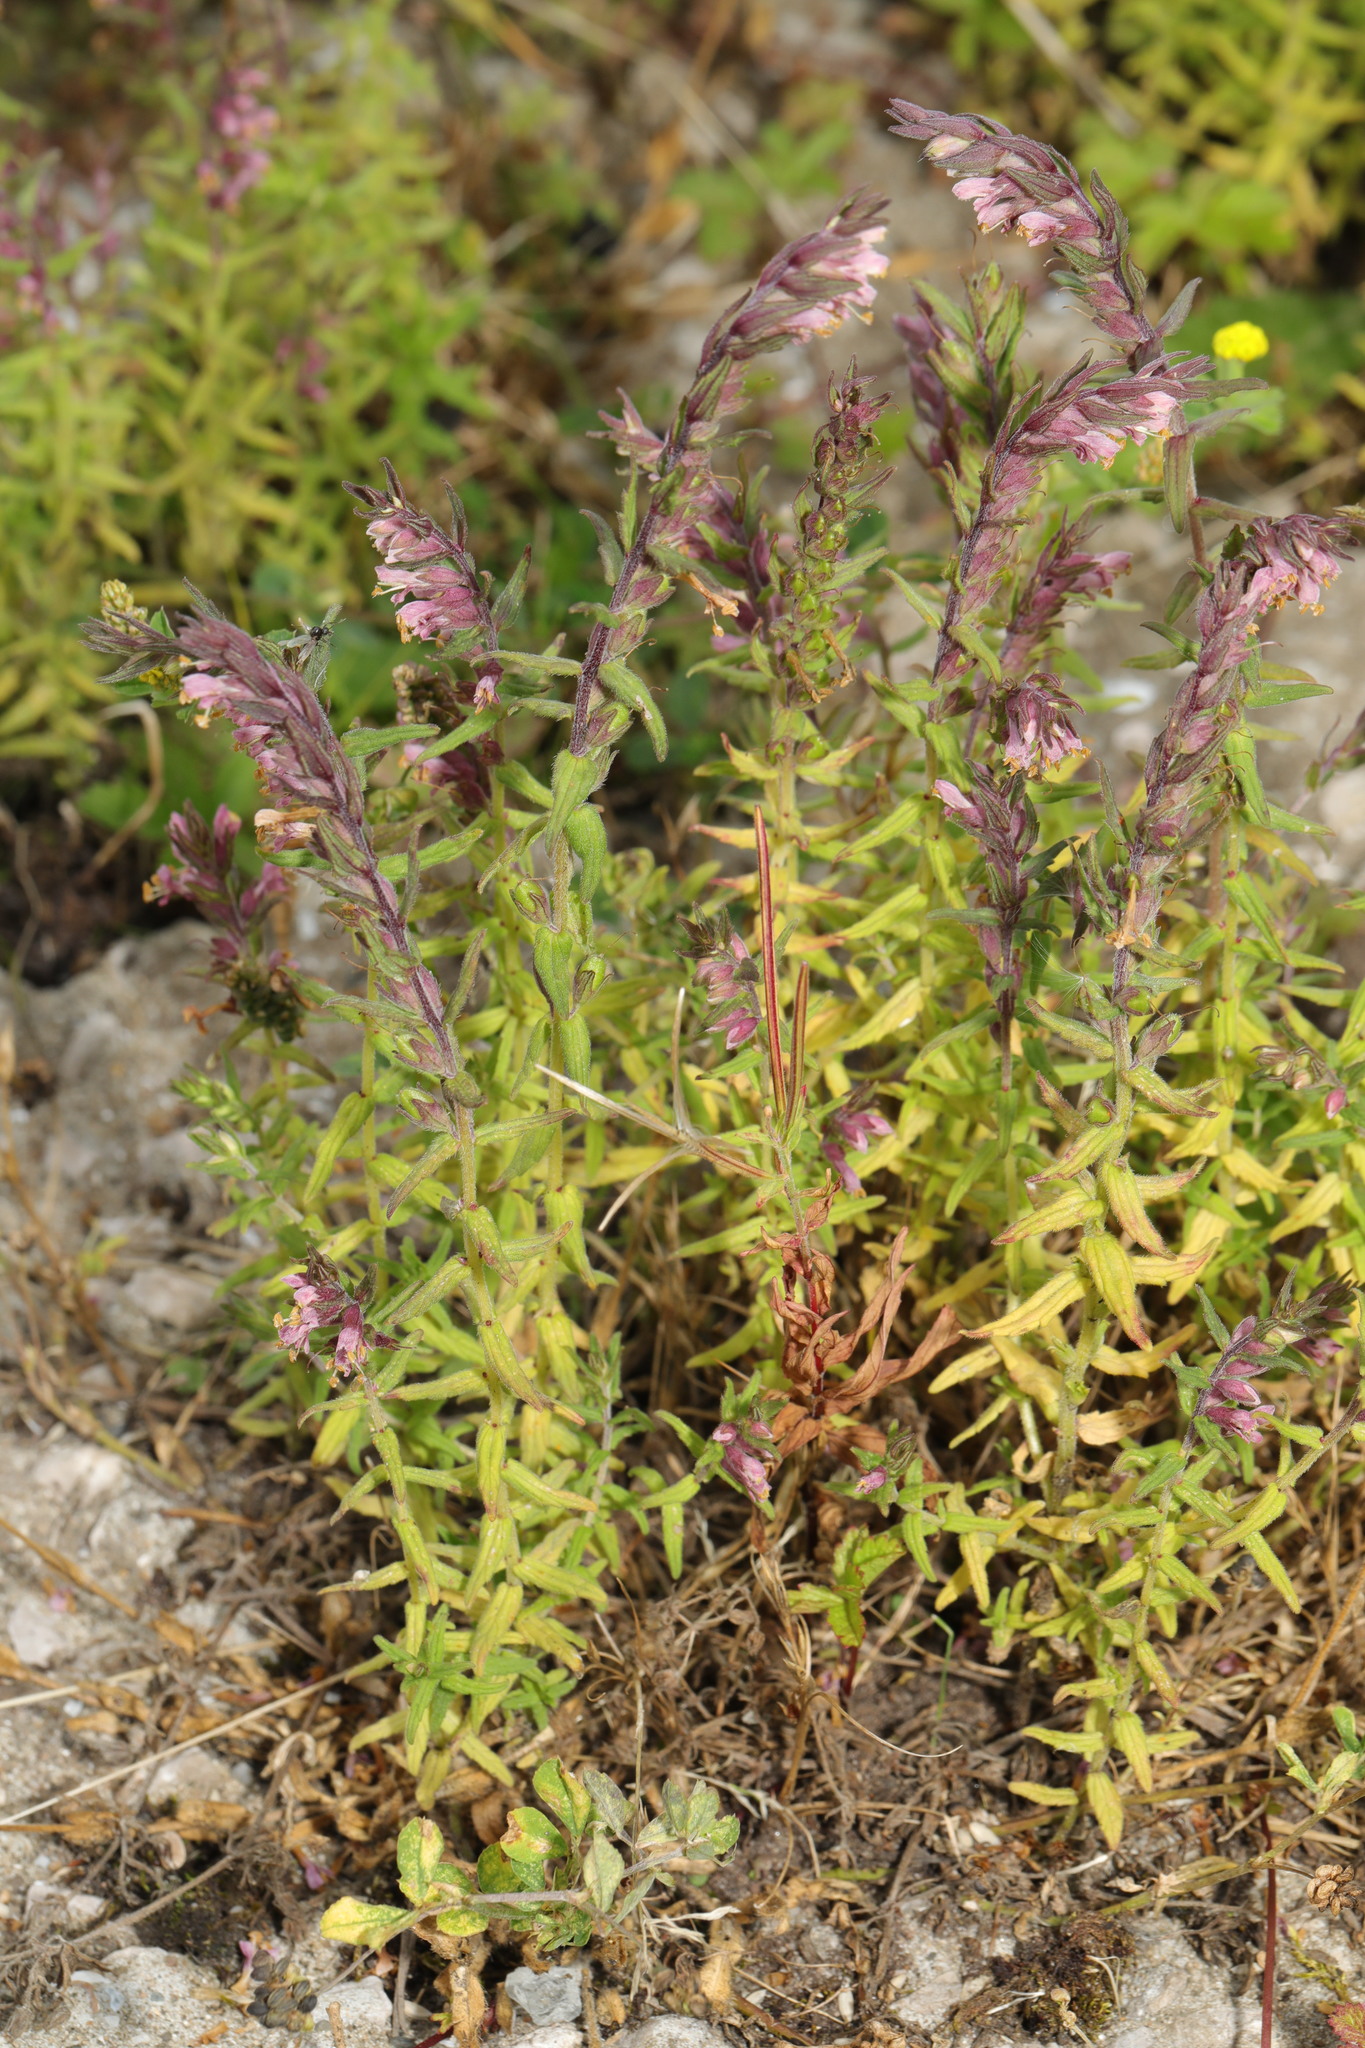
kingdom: Plantae
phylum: Tracheophyta
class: Magnoliopsida
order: Lamiales
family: Orobanchaceae
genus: Odontites
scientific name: Odontites vulgaris
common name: Broomrape
